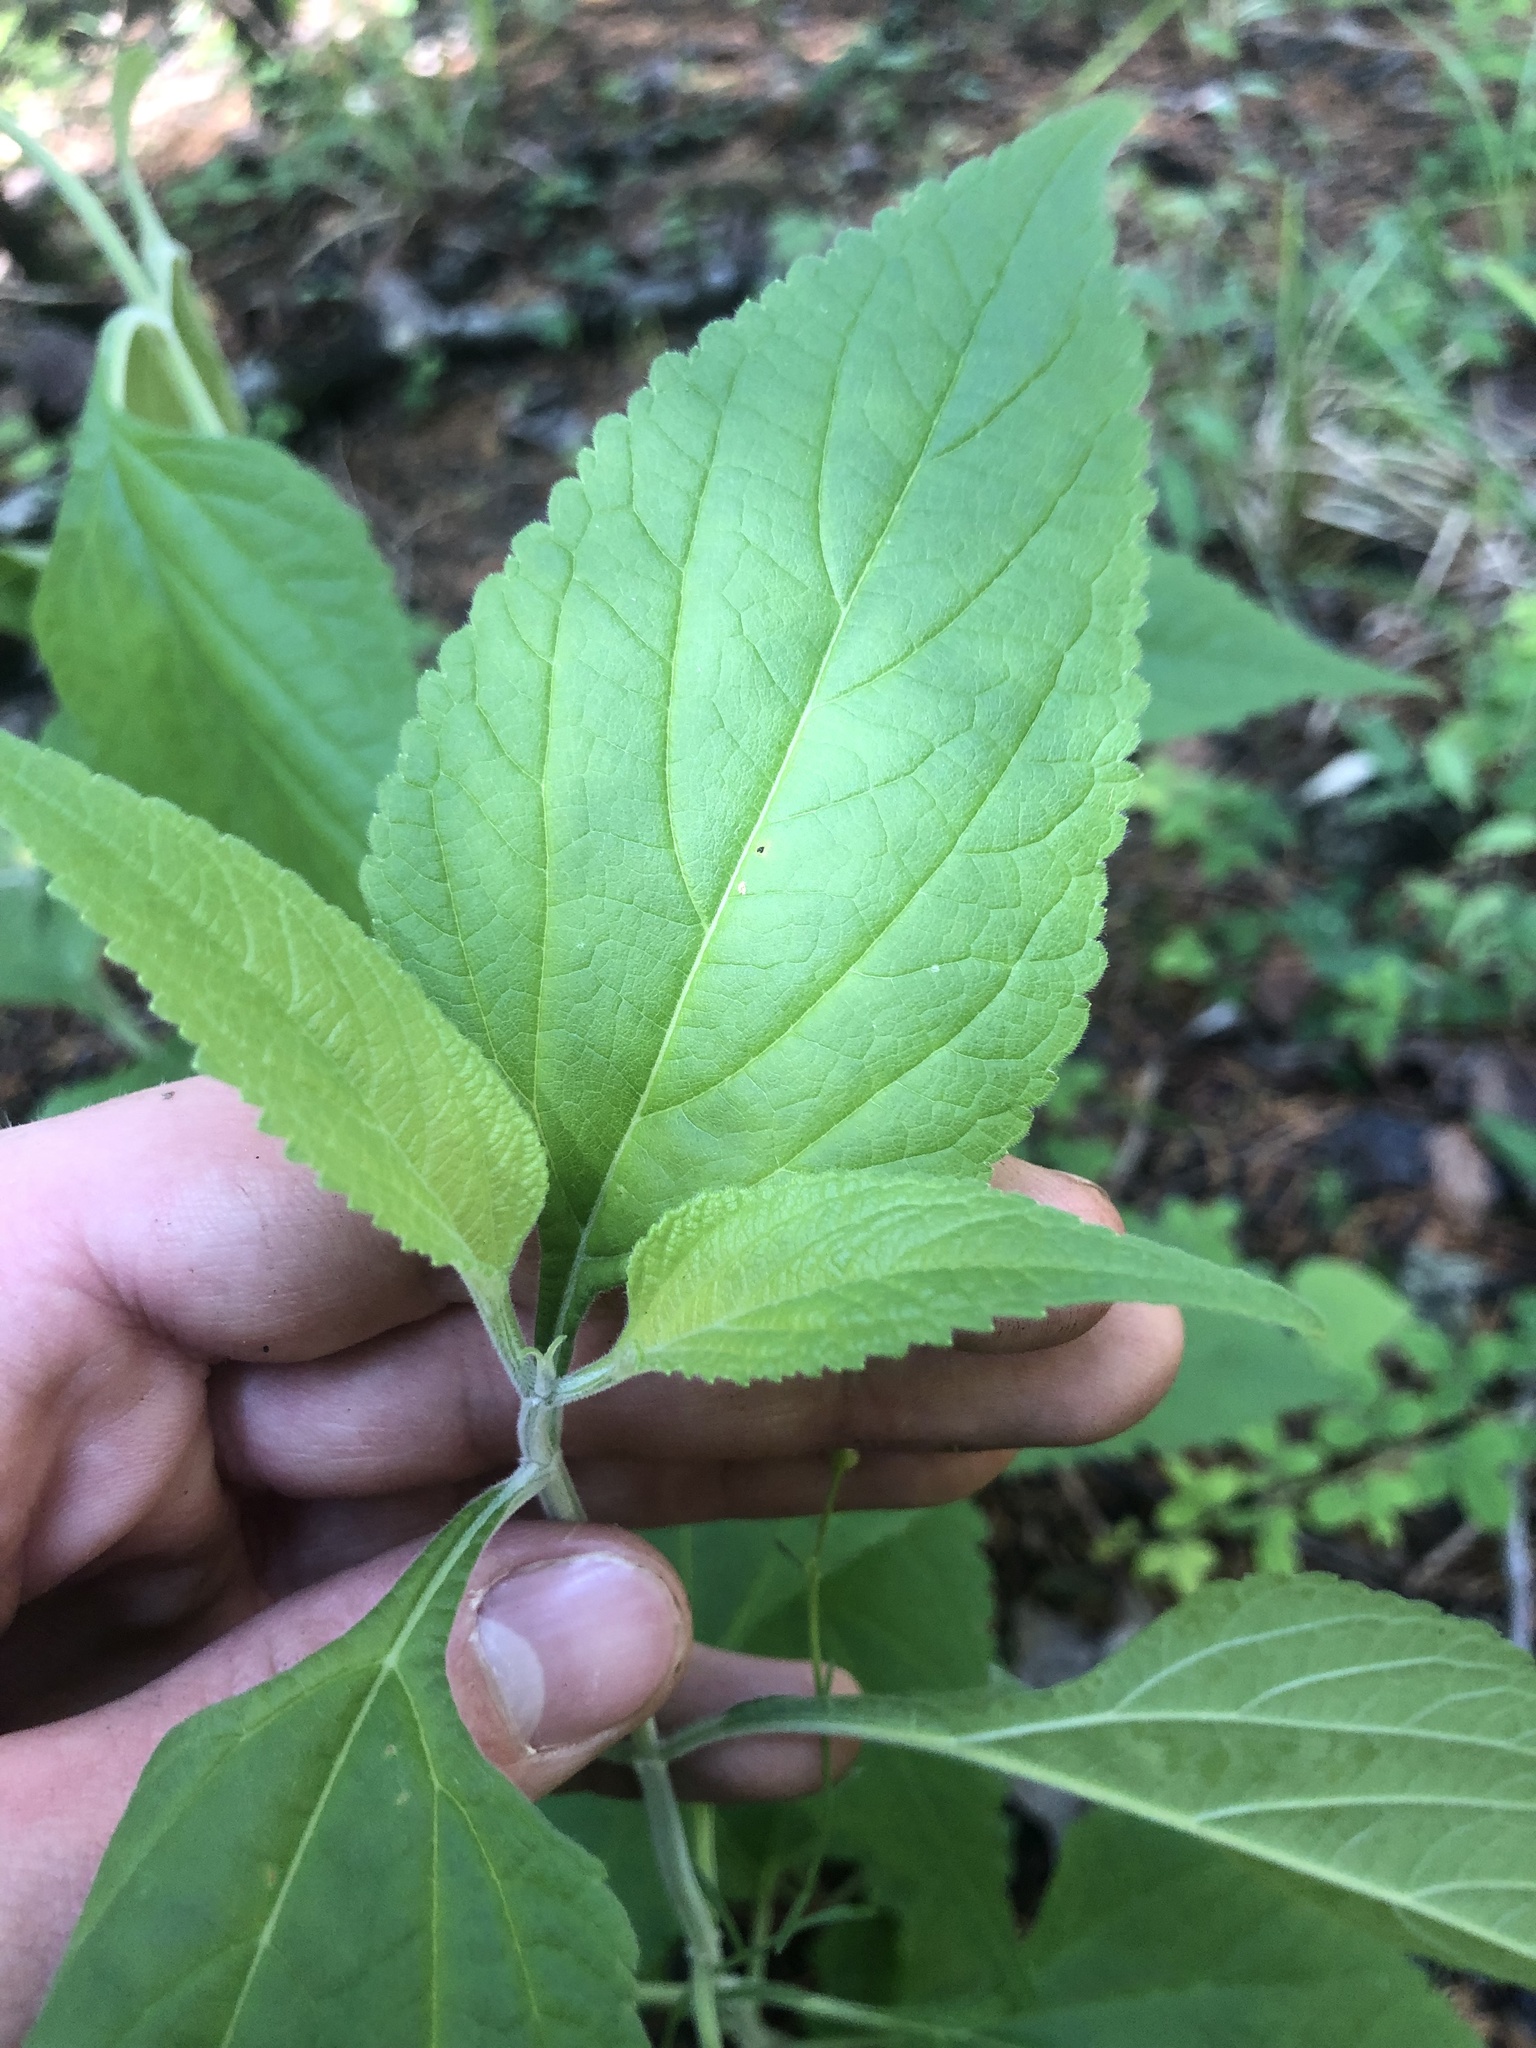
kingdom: Plantae
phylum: Tracheophyta
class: Magnoliopsida
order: Lamiales
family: Lamiaceae
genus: Salvia
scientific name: Salvia chapmanii
